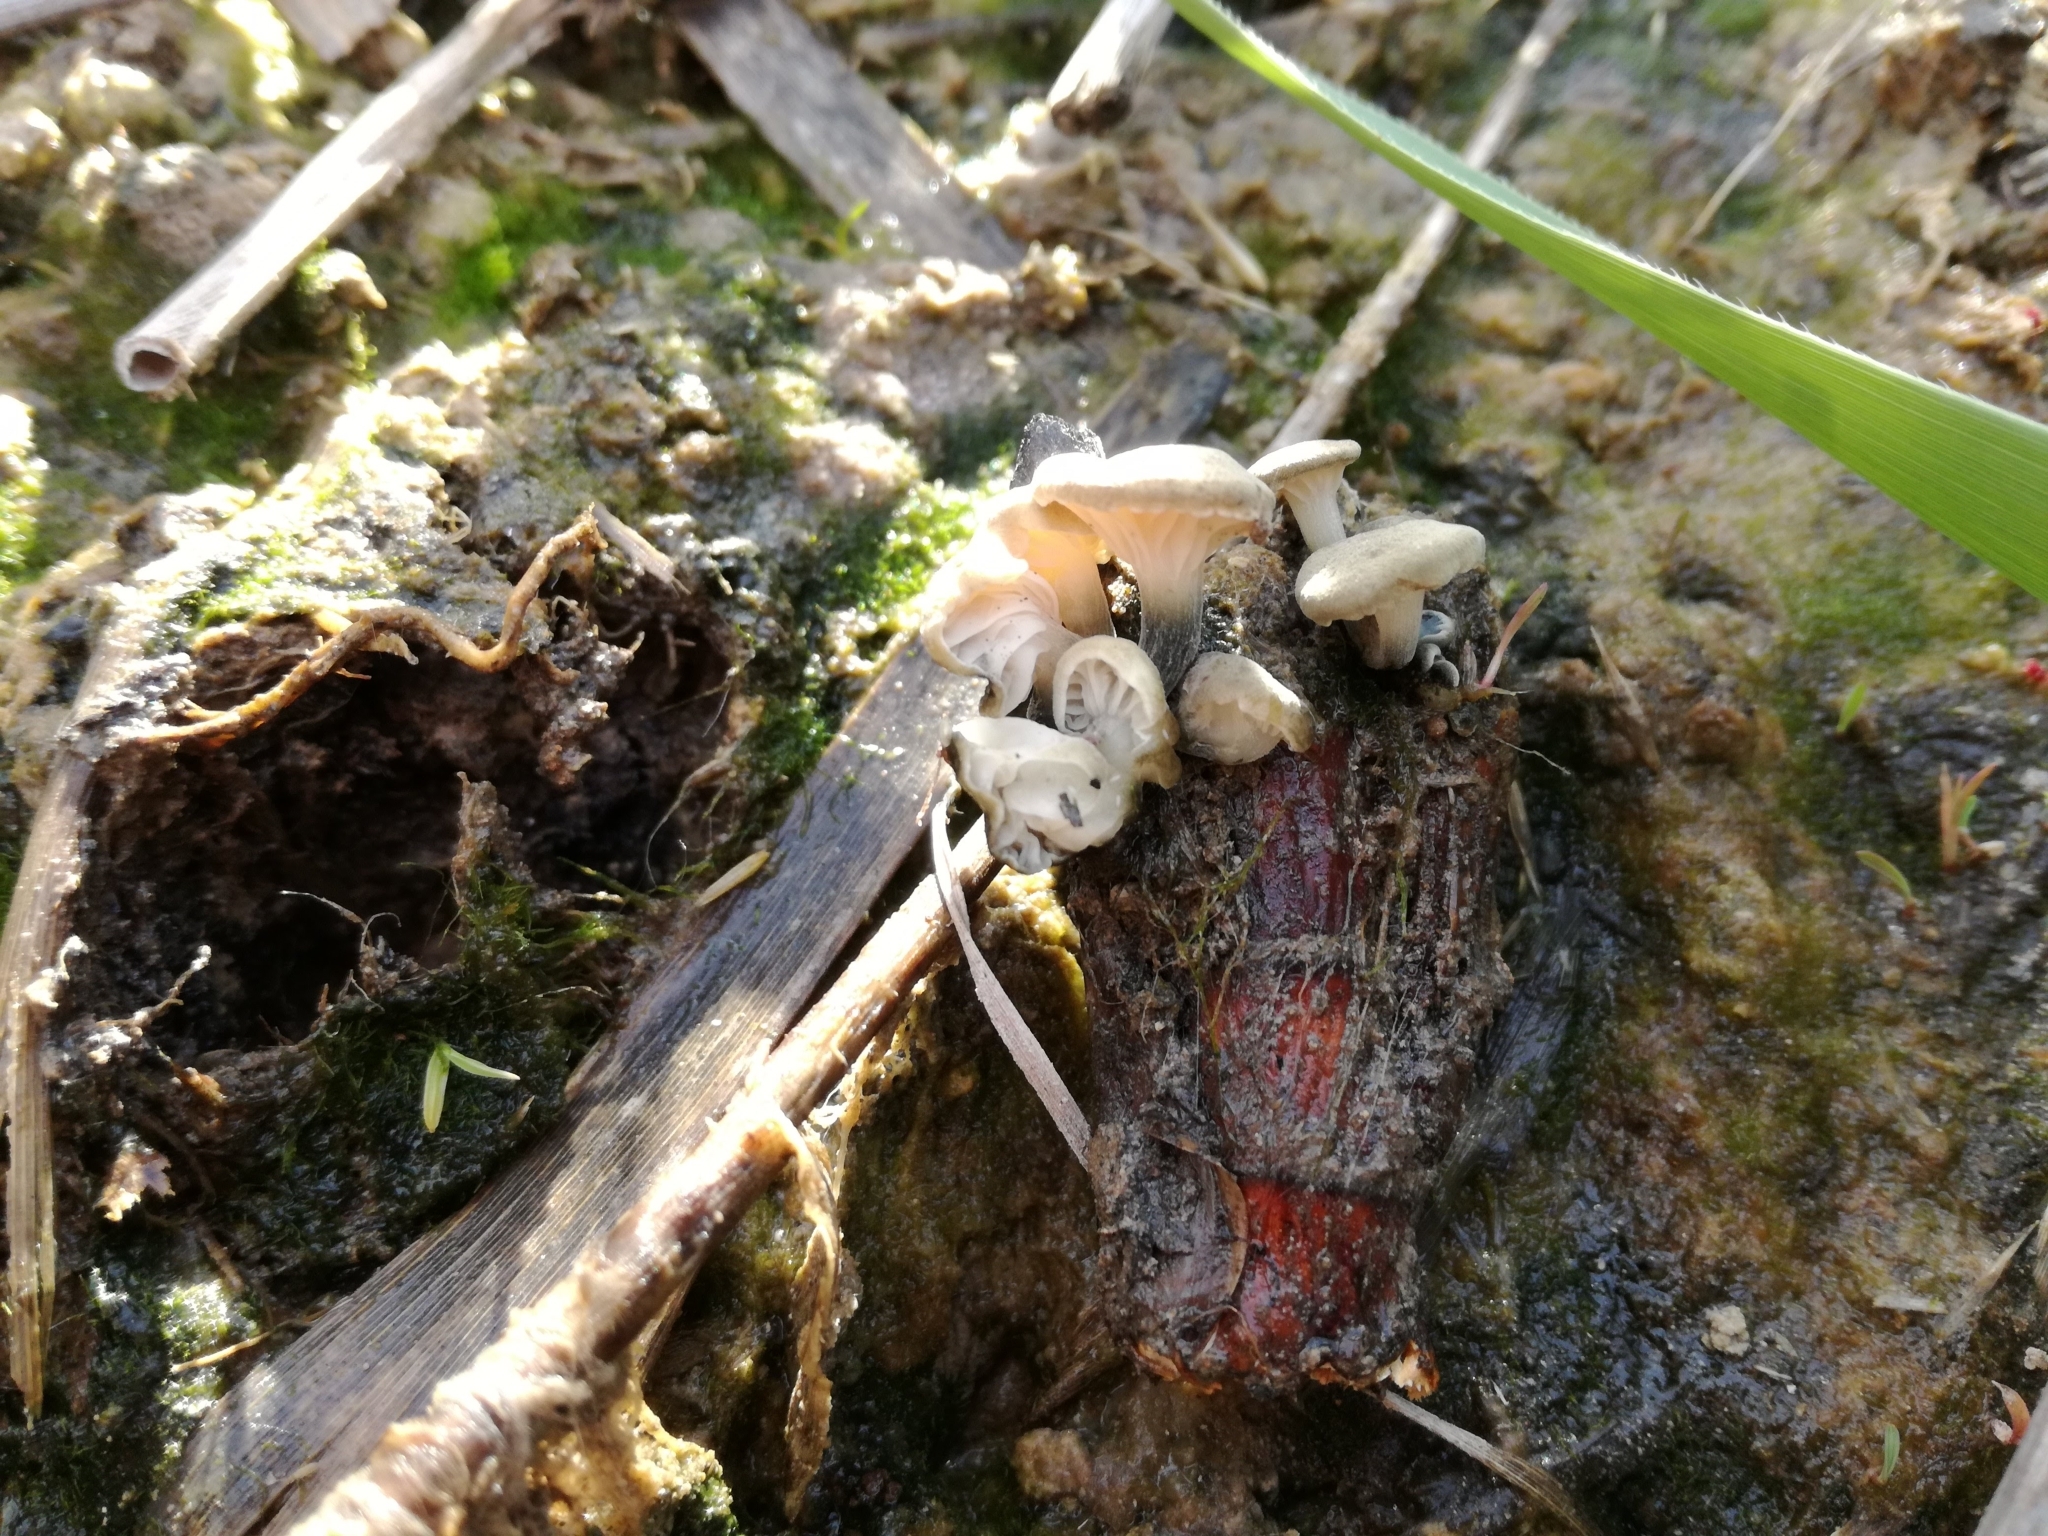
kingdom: Fungi
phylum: Basidiomycota
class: Agaricomycetes
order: Agaricales
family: Omphalotaceae
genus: Marasmiellus
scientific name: Marasmiellus trabutii
